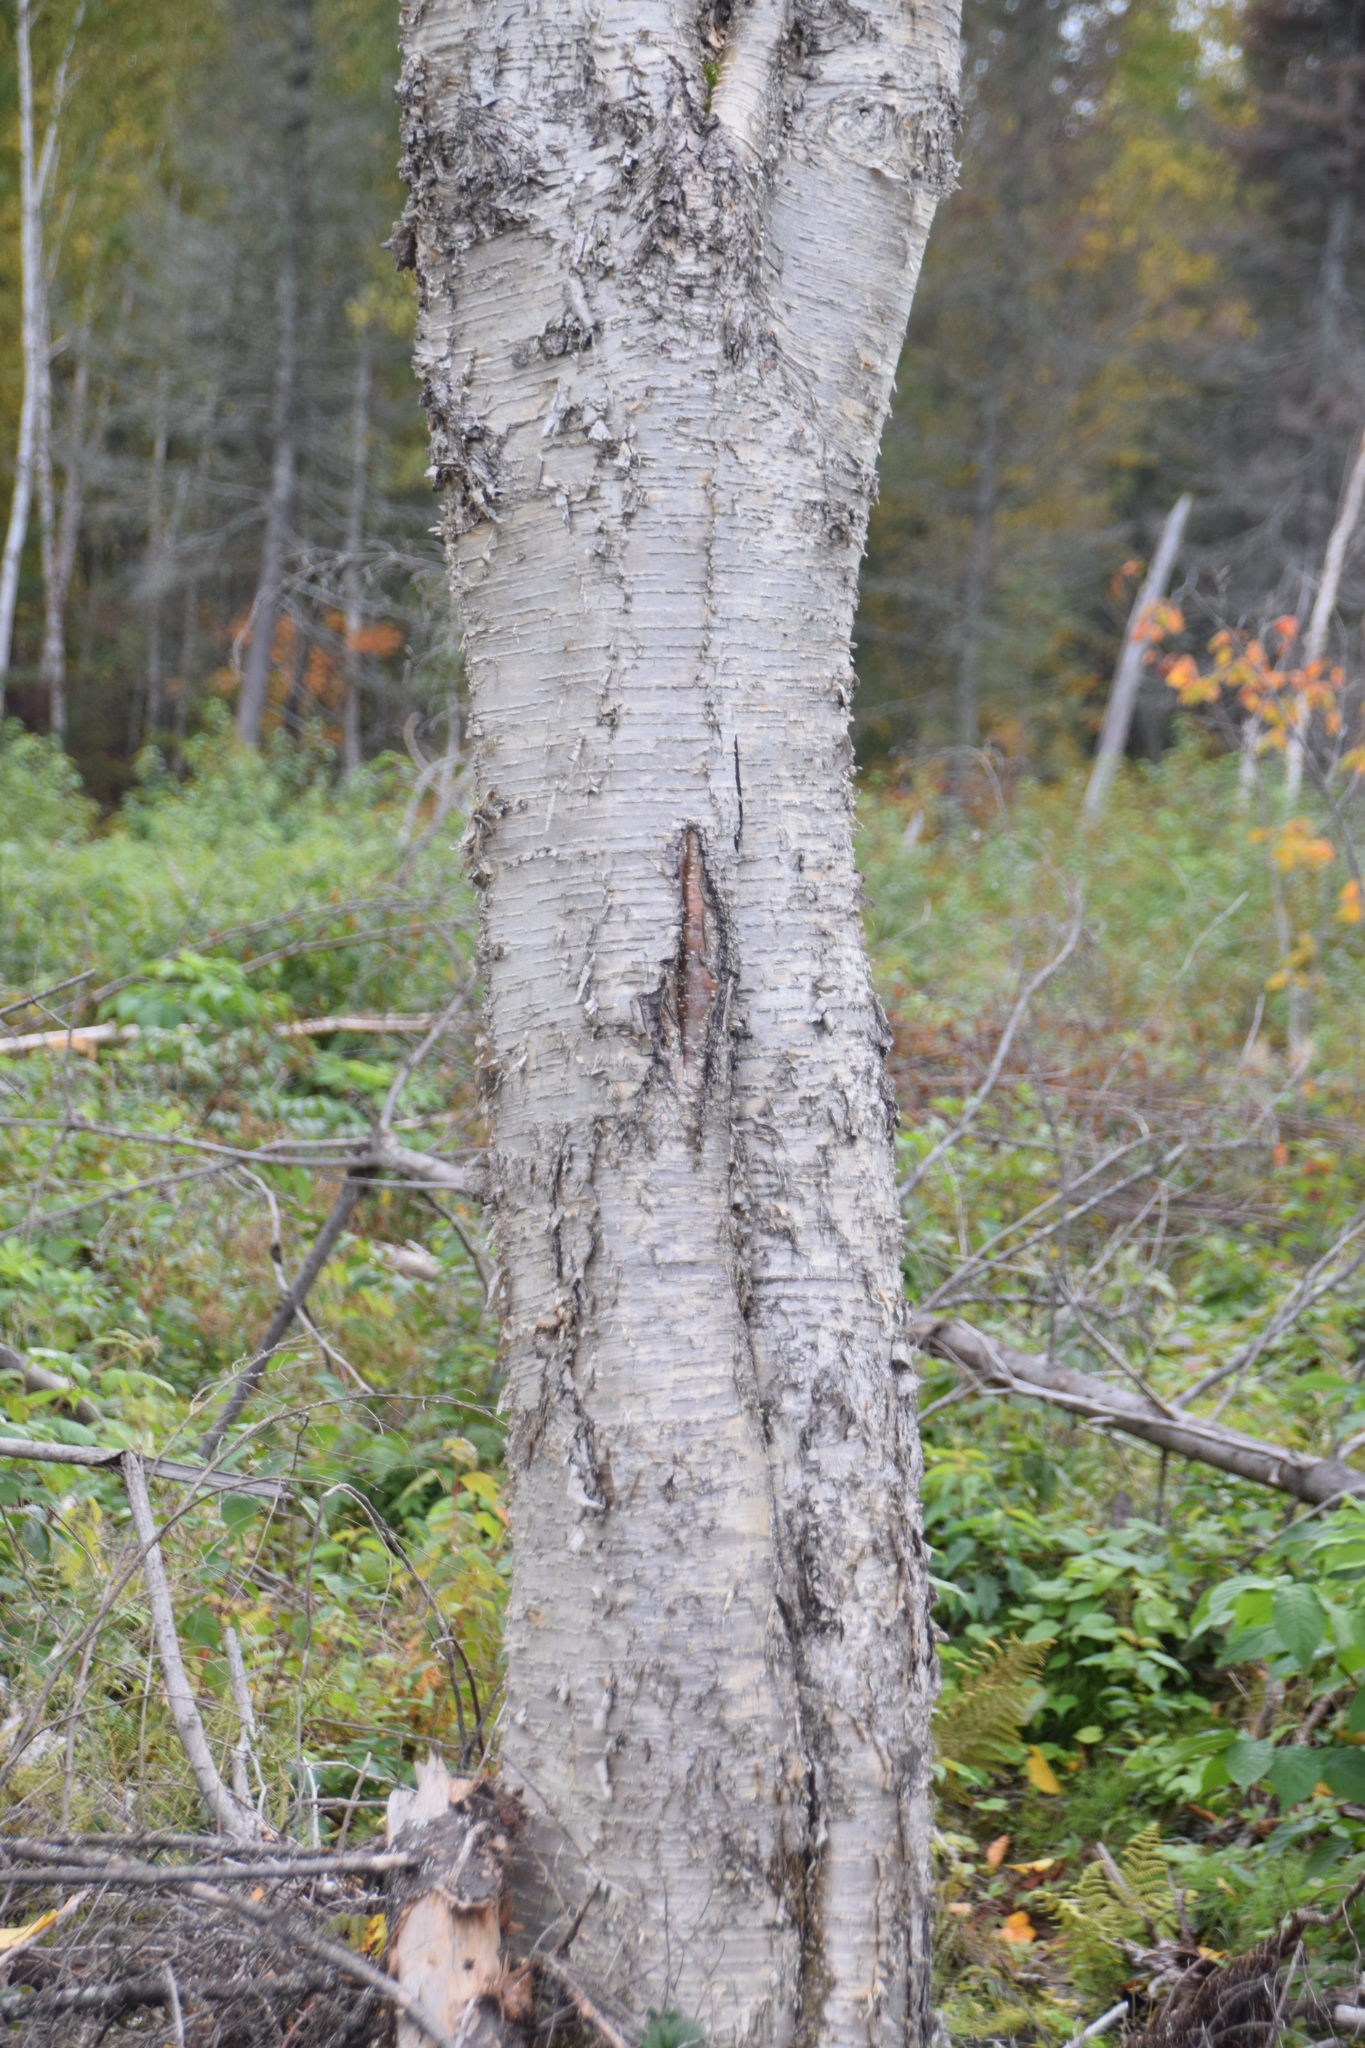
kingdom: Plantae
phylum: Tracheophyta
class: Magnoliopsida
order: Fagales
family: Betulaceae
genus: Betula
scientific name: Betula alleghaniensis
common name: Yellow birch
